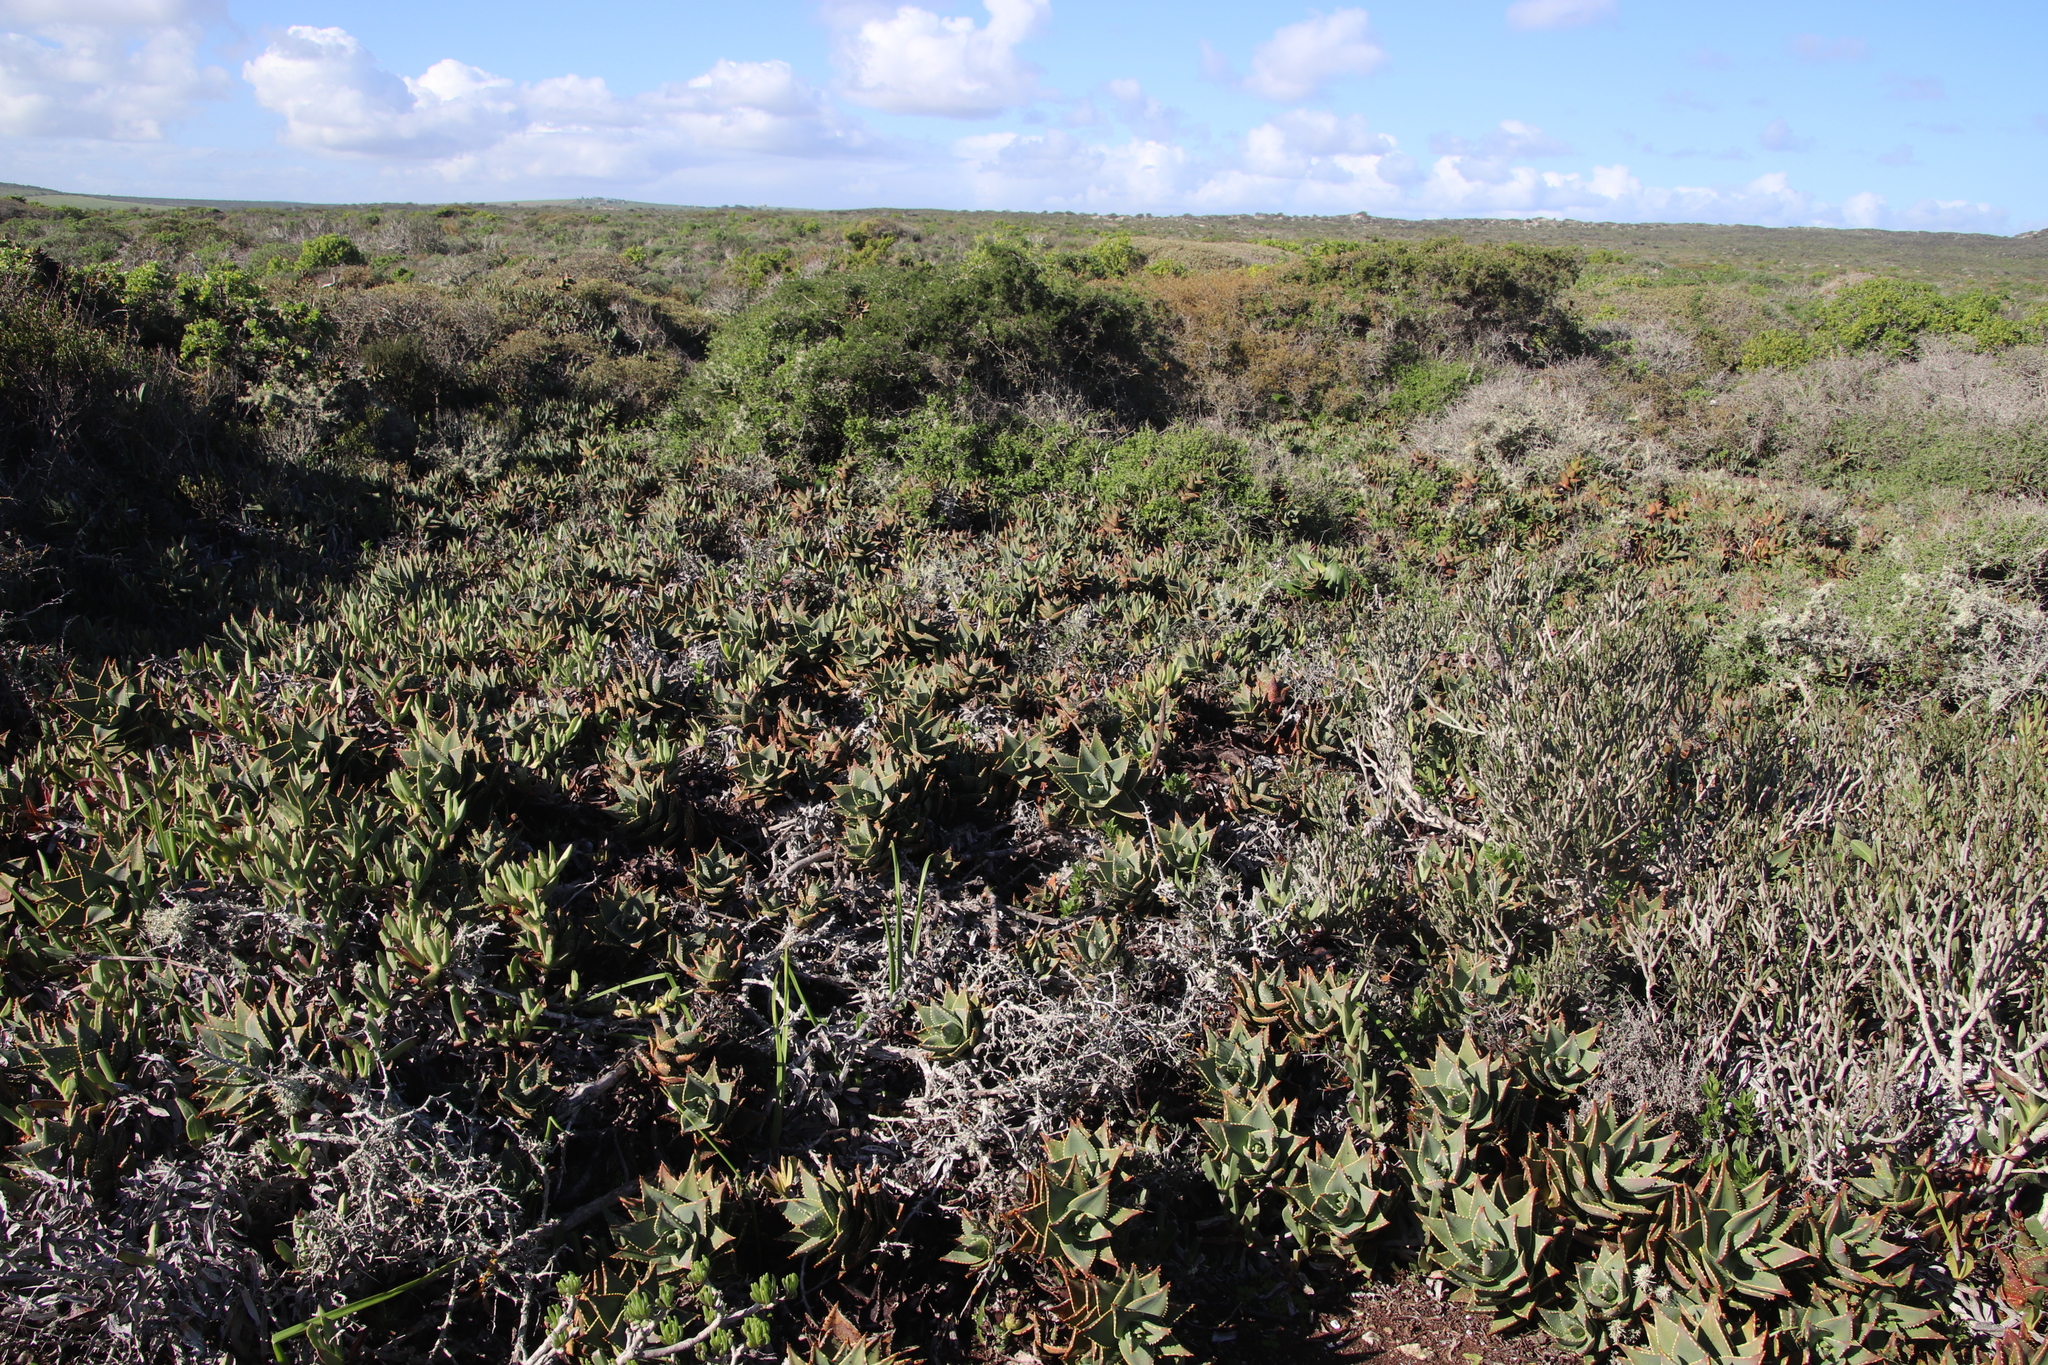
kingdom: Plantae
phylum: Tracheophyta
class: Liliopsida
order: Asparagales
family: Asphodelaceae
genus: Aloe
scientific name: Aloe distans
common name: Short-leaved aloe
